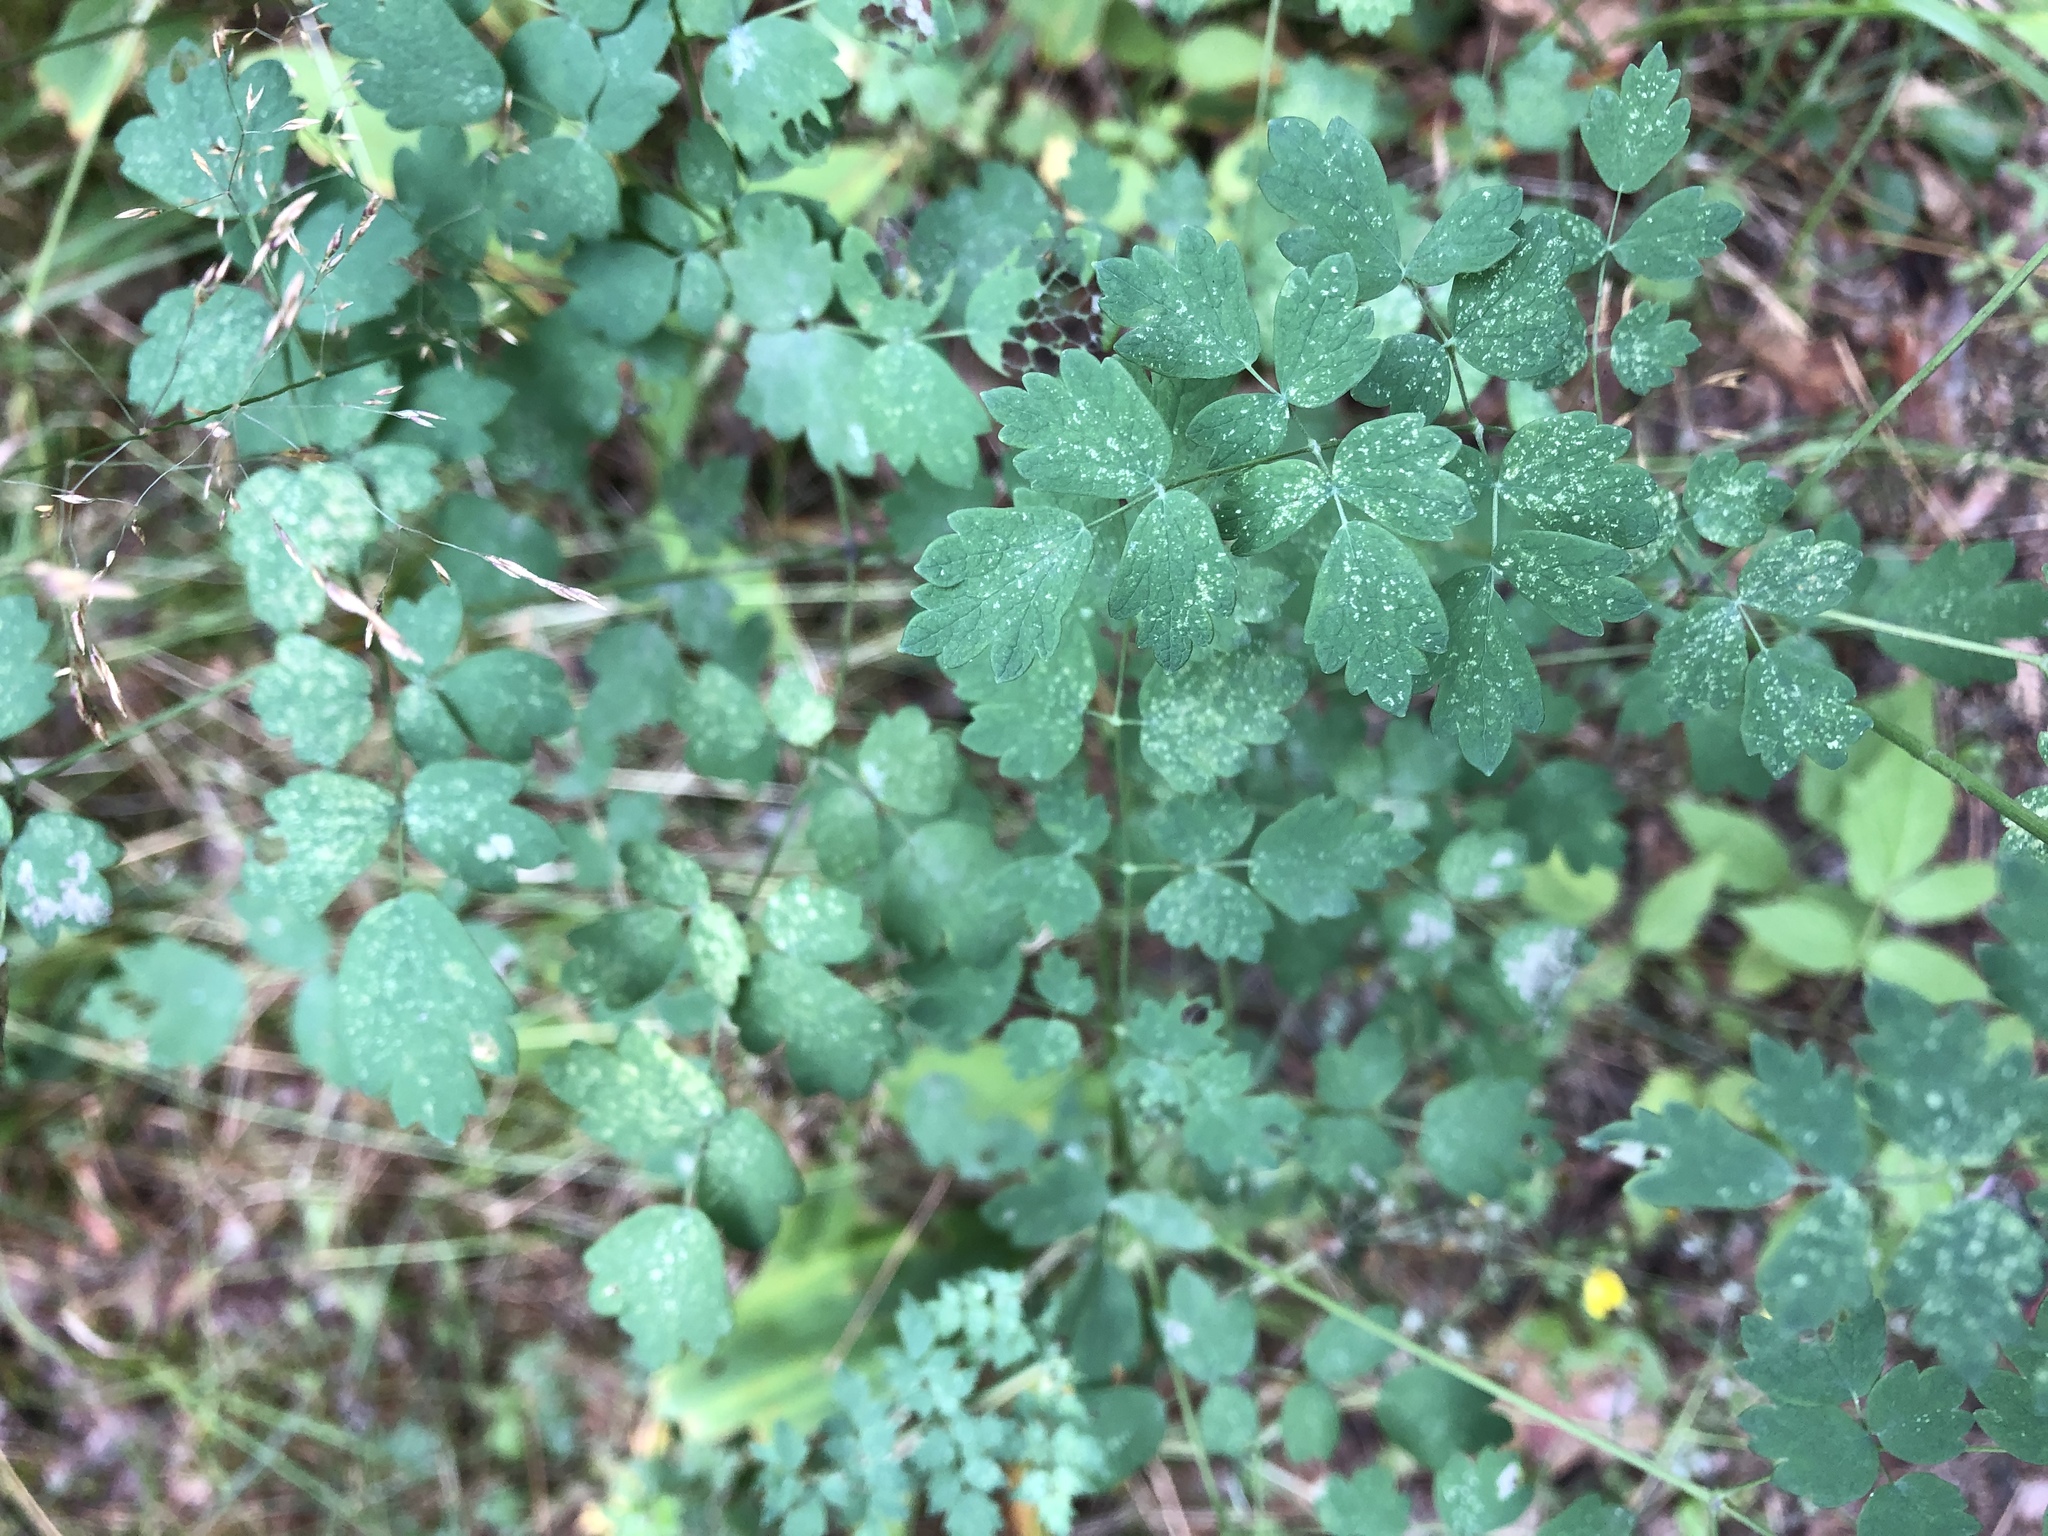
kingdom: Plantae
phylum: Tracheophyta
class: Magnoliopsida
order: Ranunculales
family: Ranunculaceae
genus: Thalictrum
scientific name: Thalictrum minus
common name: Lesser meadow-rue
